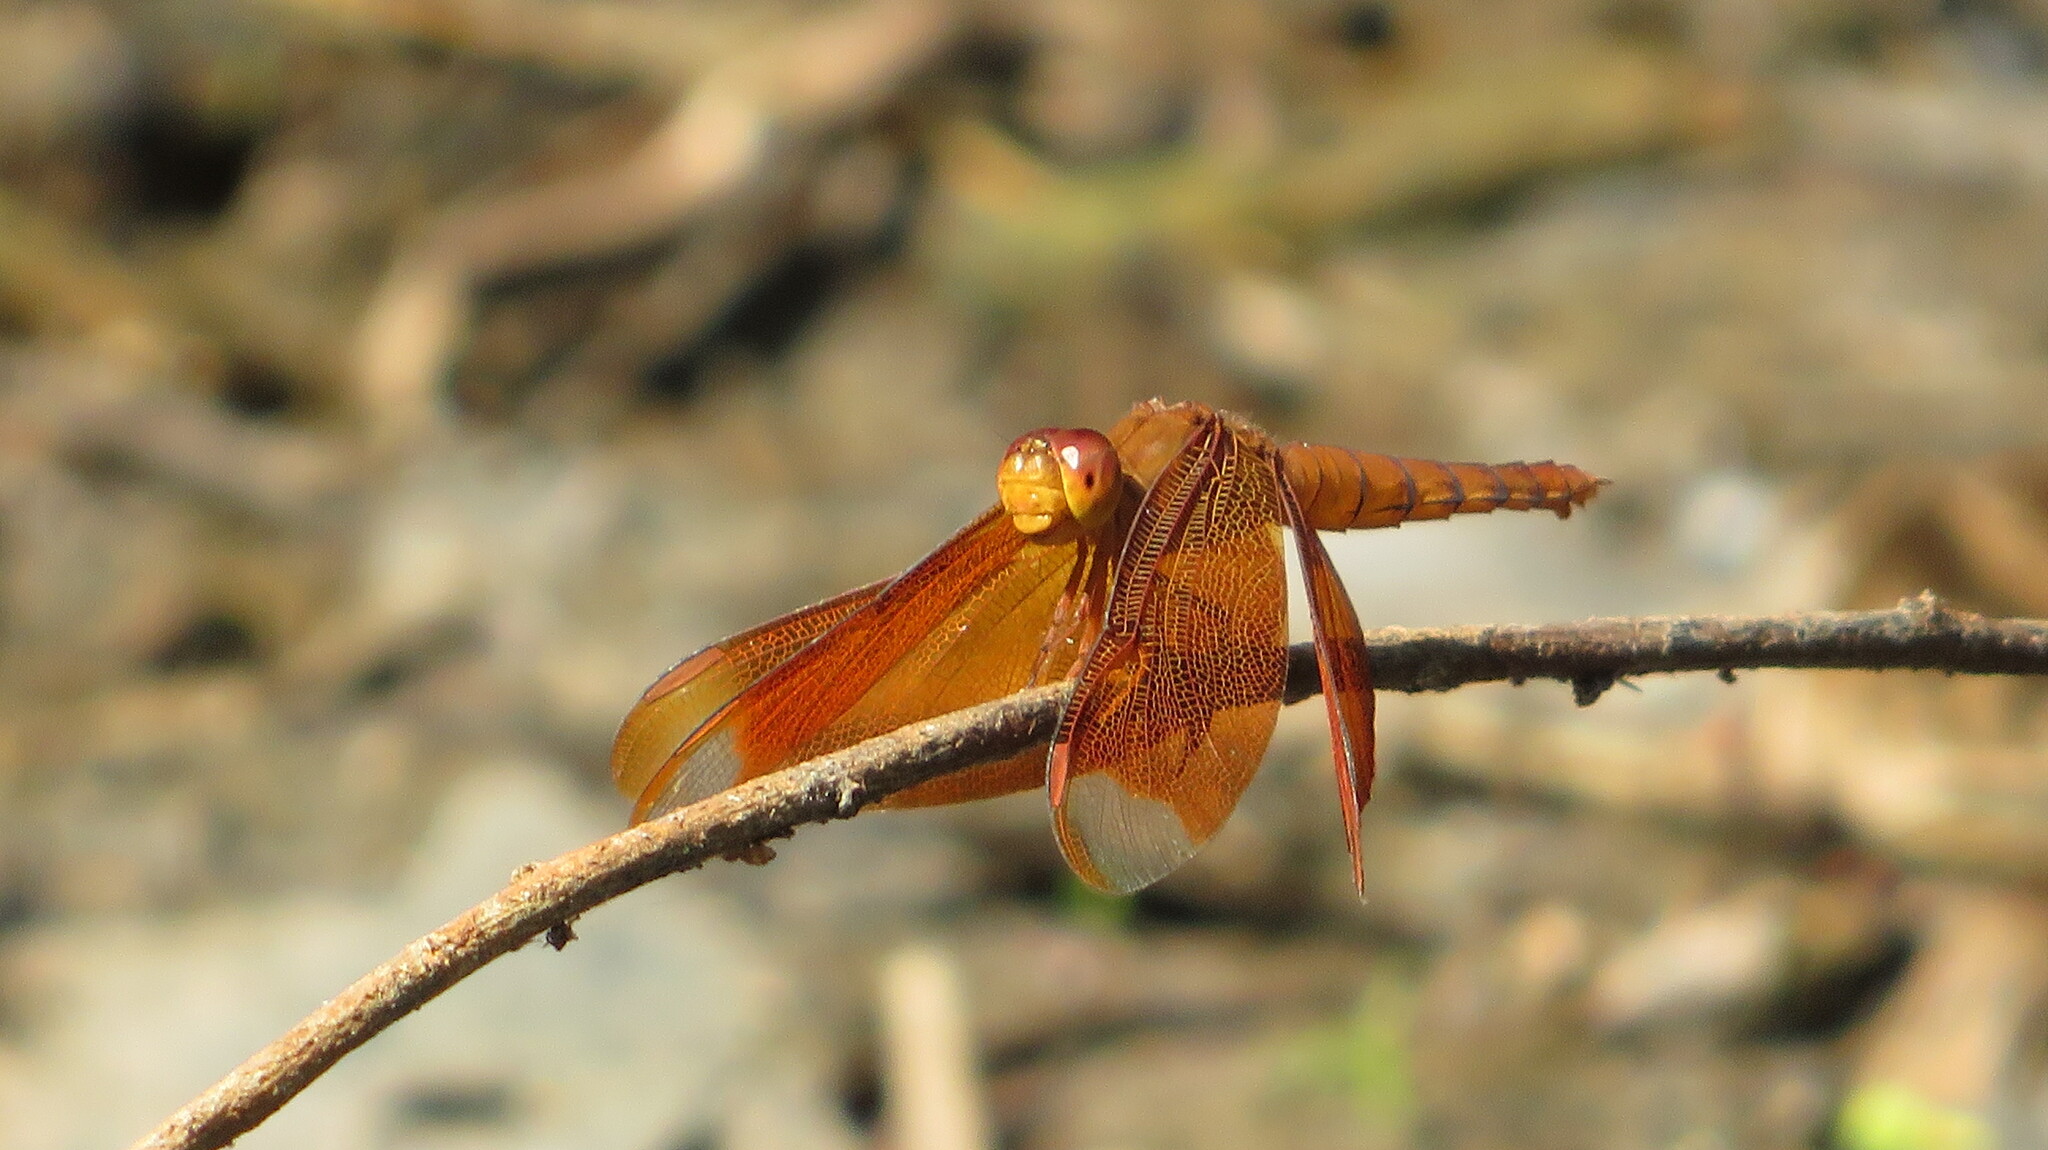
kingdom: Animalia
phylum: Arthropoda
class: Insecta
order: Odonata
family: Libellulidae
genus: Neurothemis
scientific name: Neurothemis fulvia
